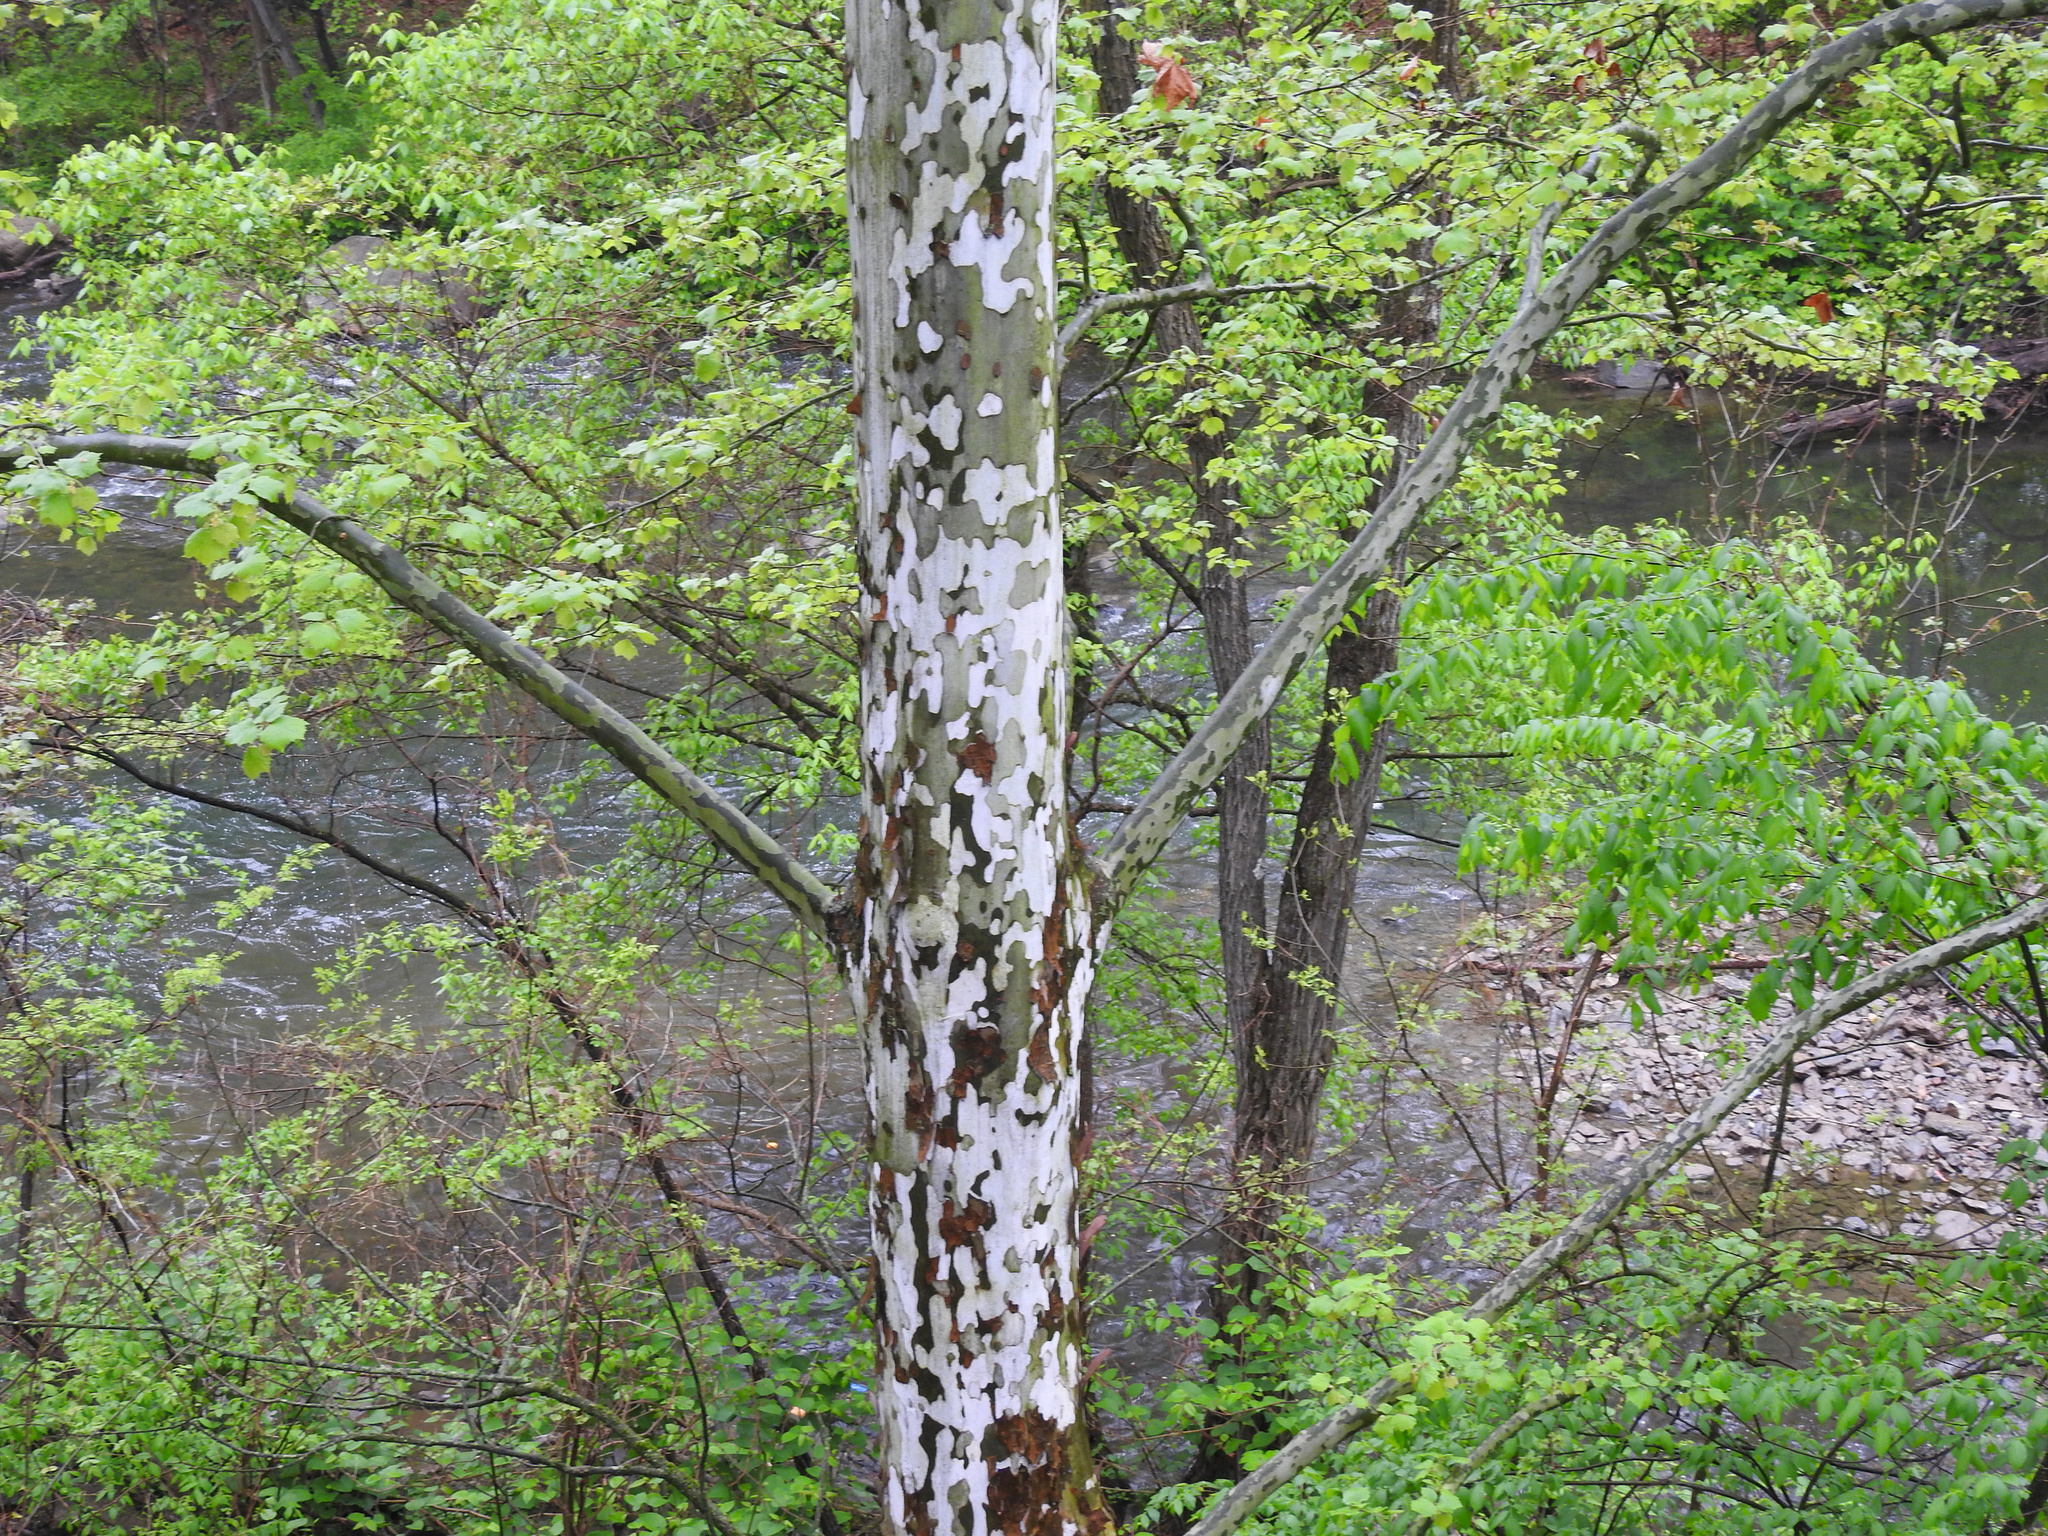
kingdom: Plantae
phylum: Tracheophyta
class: Magnoliopsida
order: Proteales
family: Platanaceae
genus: Platanus
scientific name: Platanus occidentalis
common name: American sycamore
